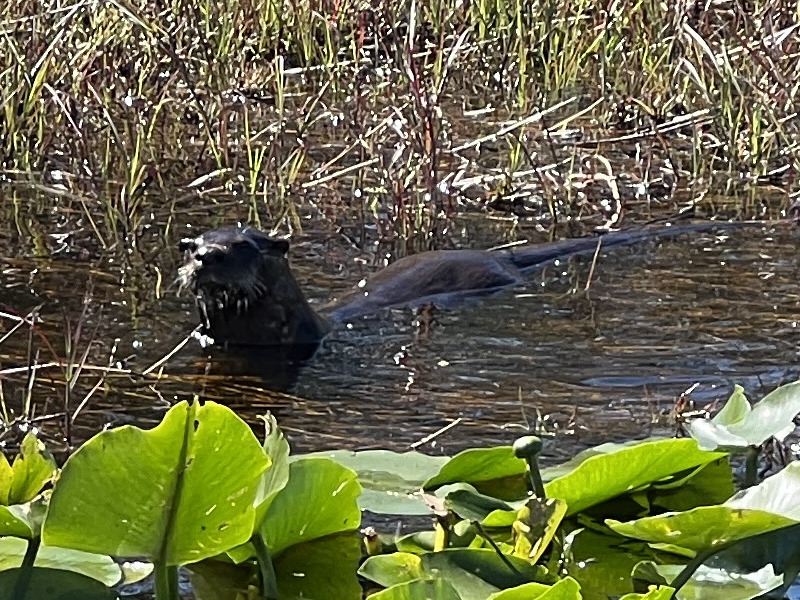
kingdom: Animalia
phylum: Chordata
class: Mammalia
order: Carnivora
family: Mustelidae
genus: Lontra
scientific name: Lontra canadensis
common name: North american river otter
